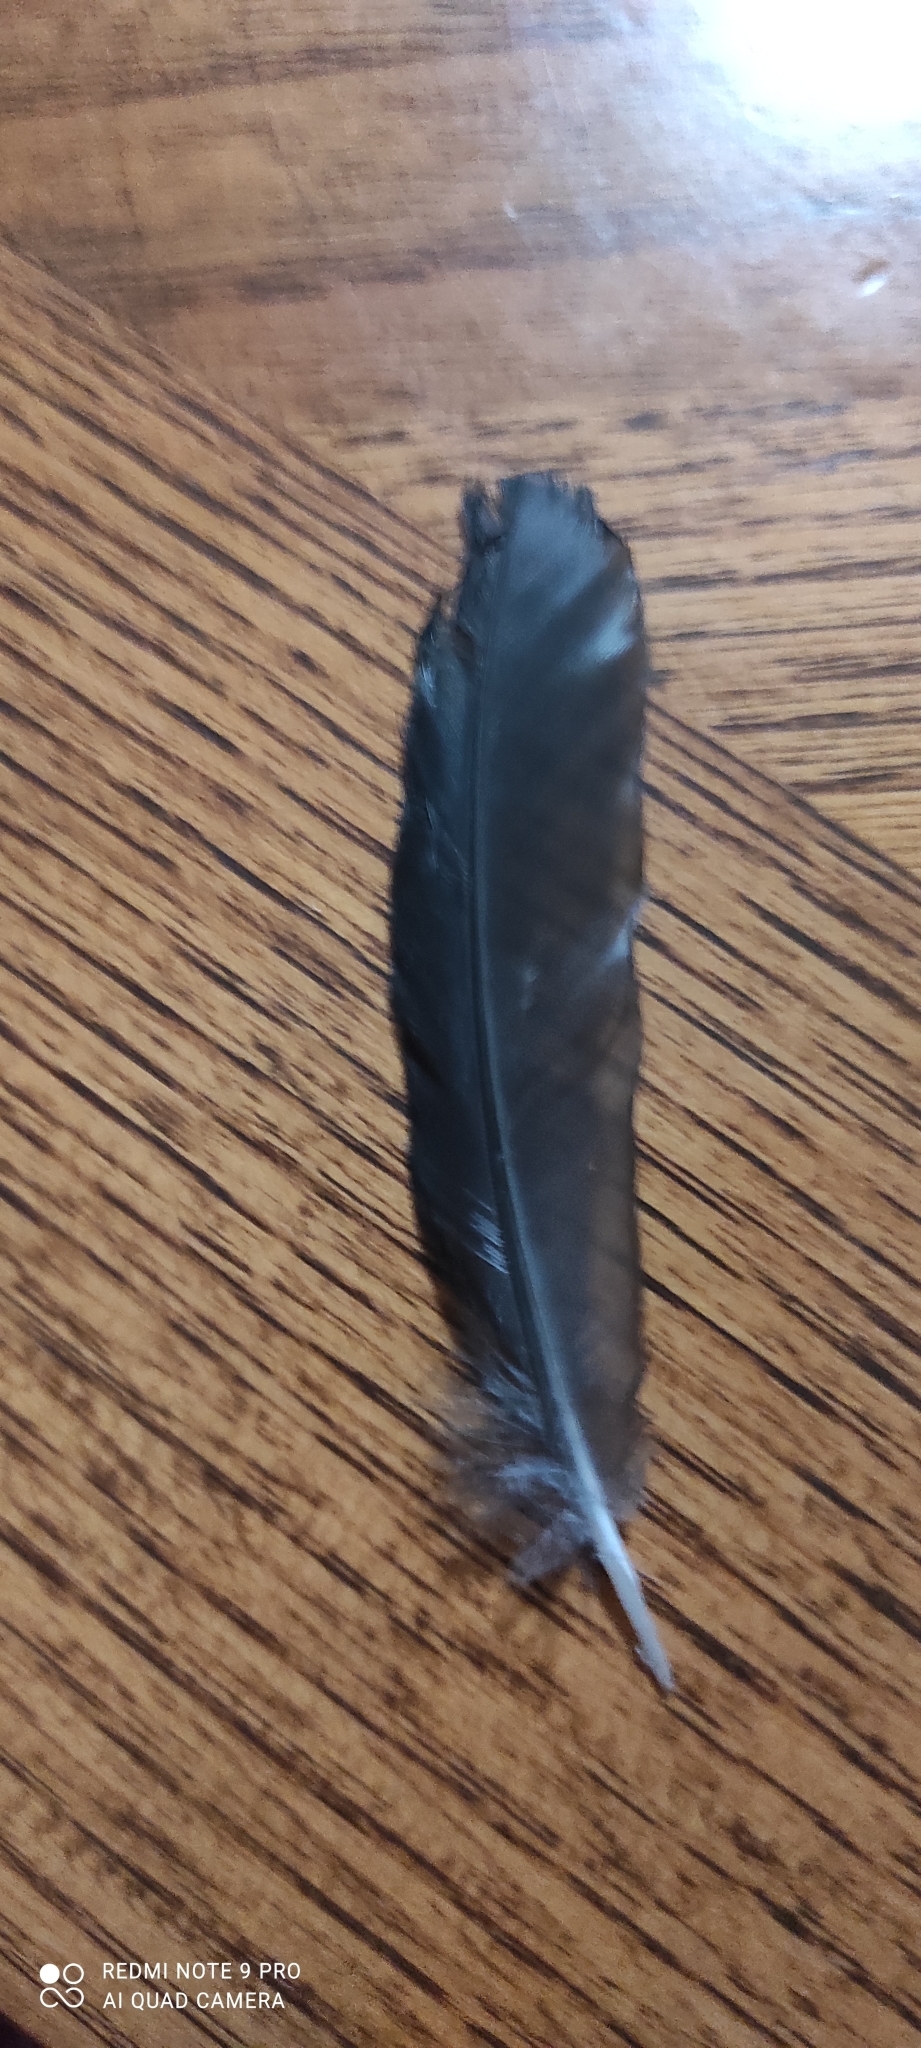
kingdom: Animalia
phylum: Chordata
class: Aves
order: Passeriformes
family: Turdidae
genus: Turdus
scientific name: Turdus merula
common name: Common blackbird
